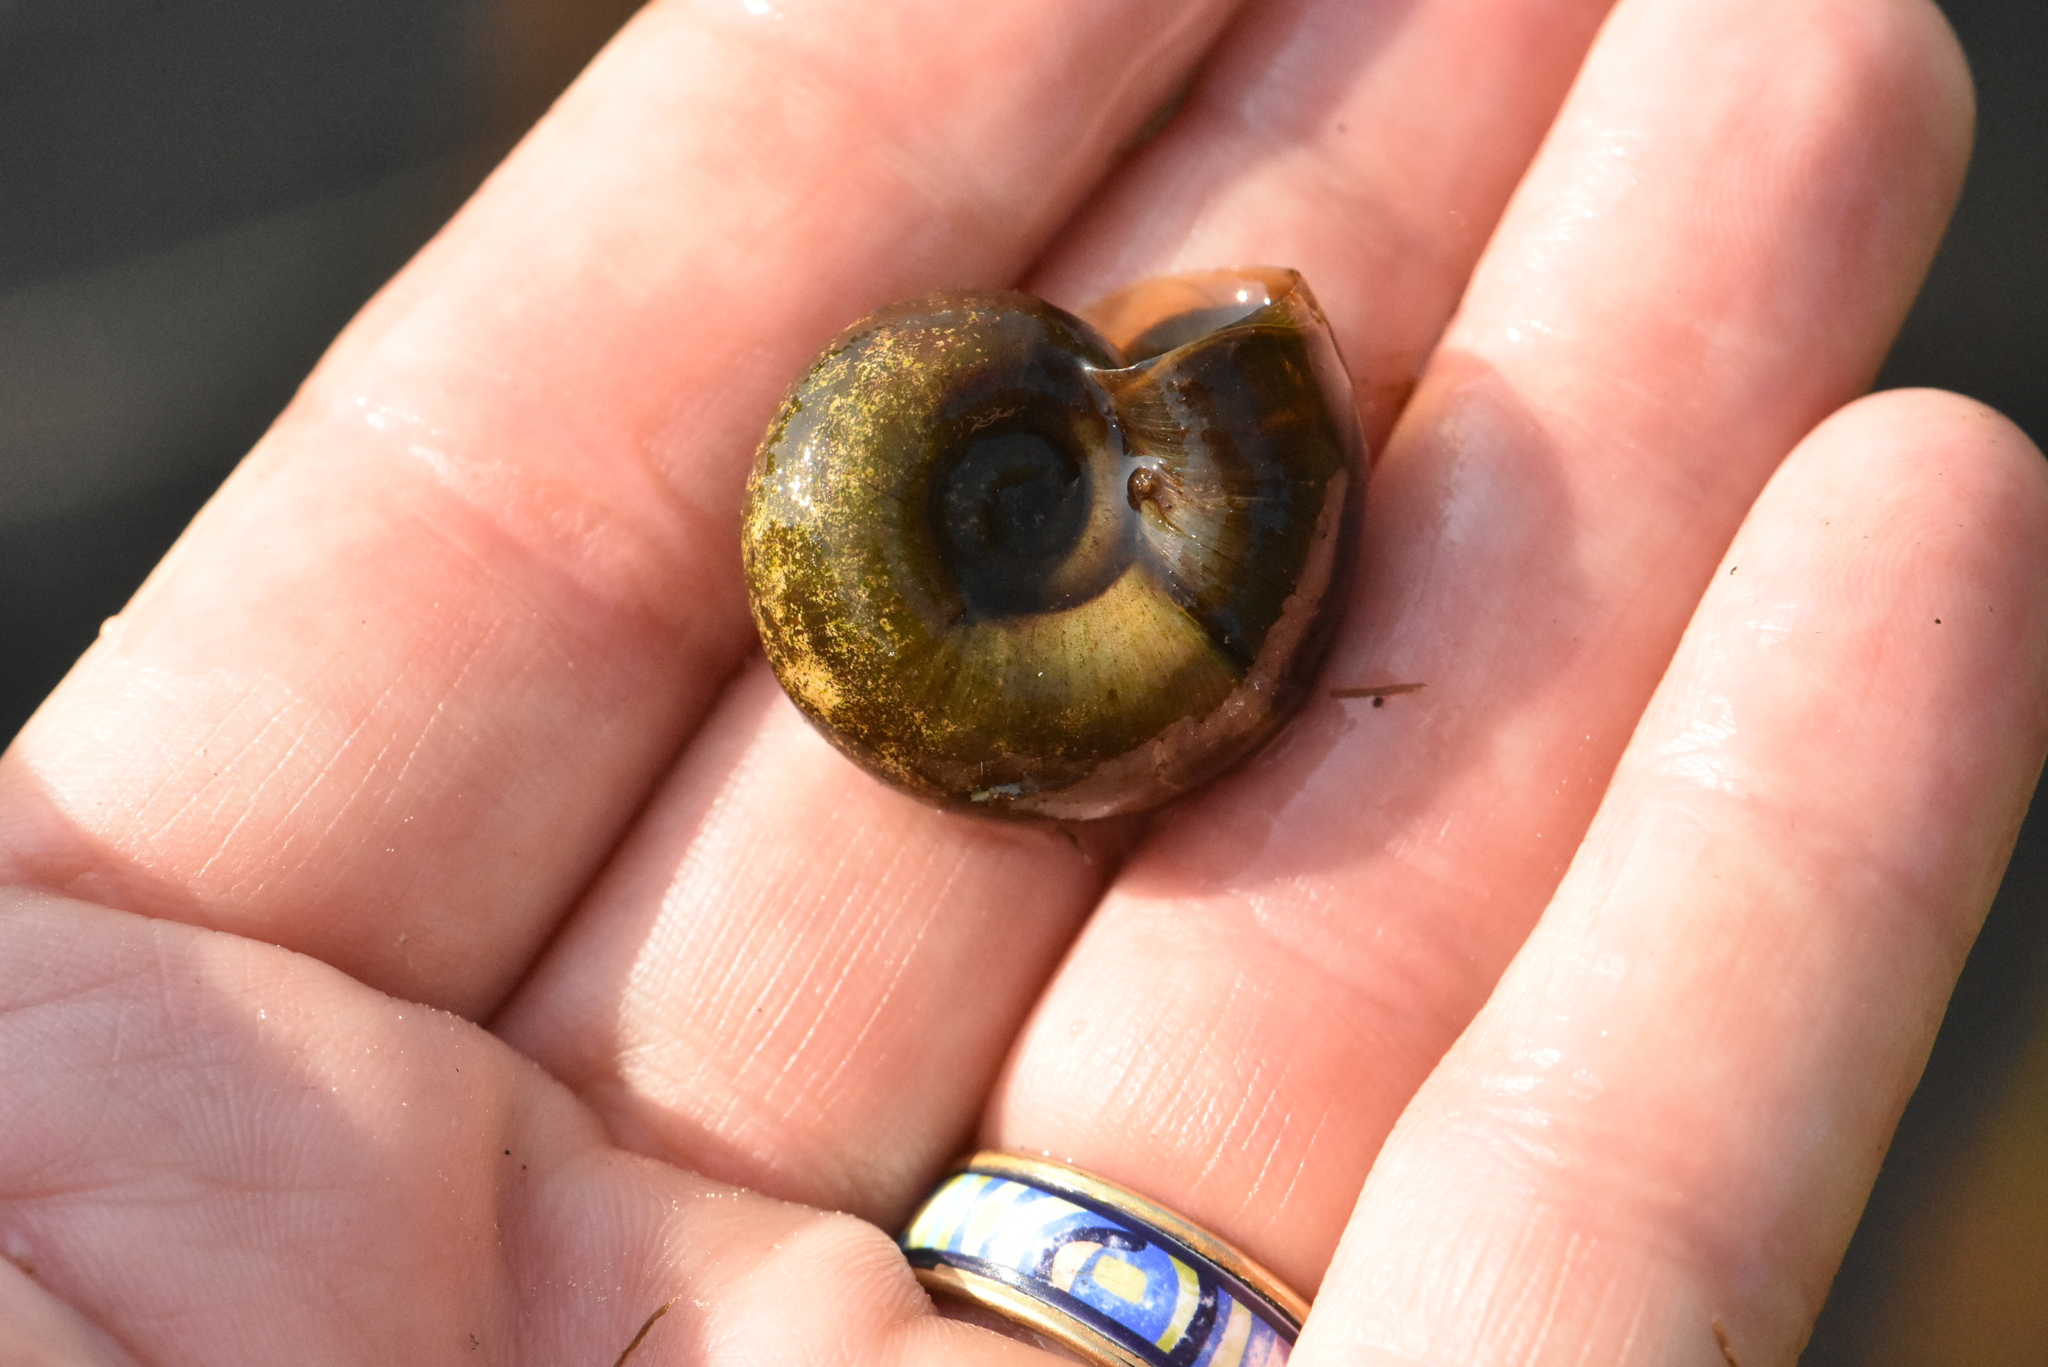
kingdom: Animalia
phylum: Mollusca
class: Gastropoda
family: Planorbidae
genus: Planorbarius
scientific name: Planorbarius corneus
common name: Great ramshorn
